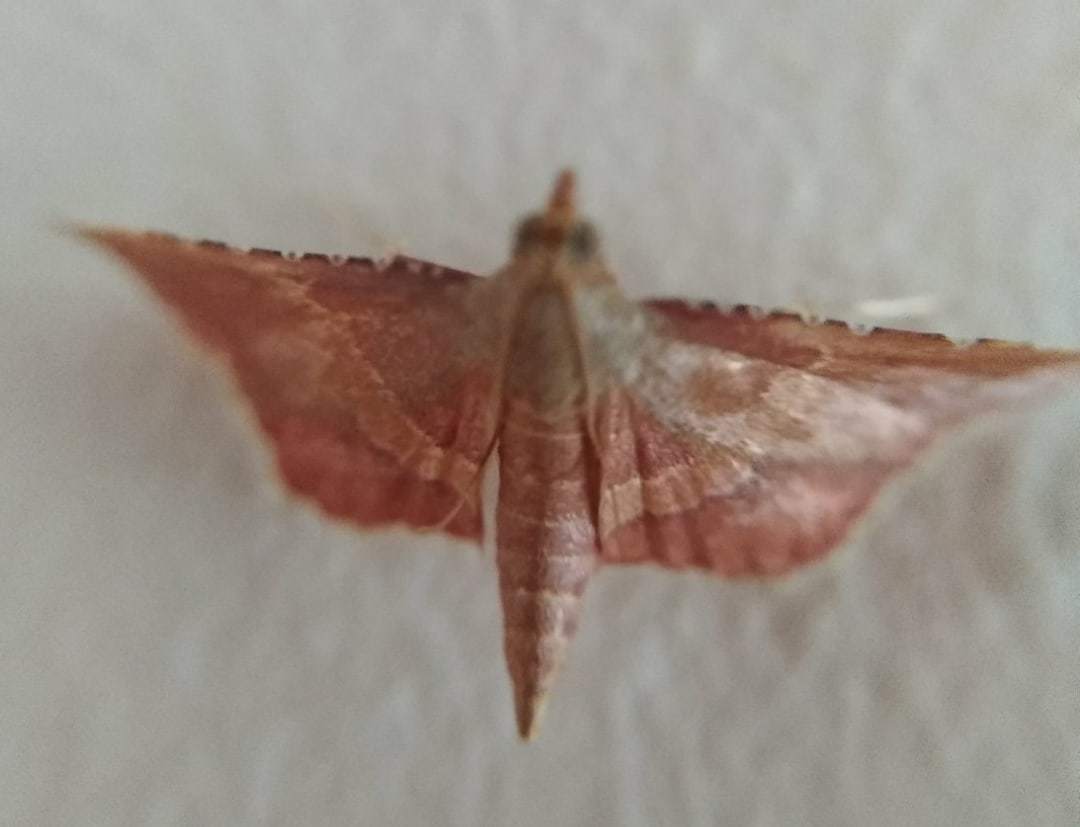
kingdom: Animalia
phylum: Arthropoda
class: Insecta
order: Lepidoptera
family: Pyralidae
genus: Endotricha
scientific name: Endotricha flammealis
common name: Rosy tabby
